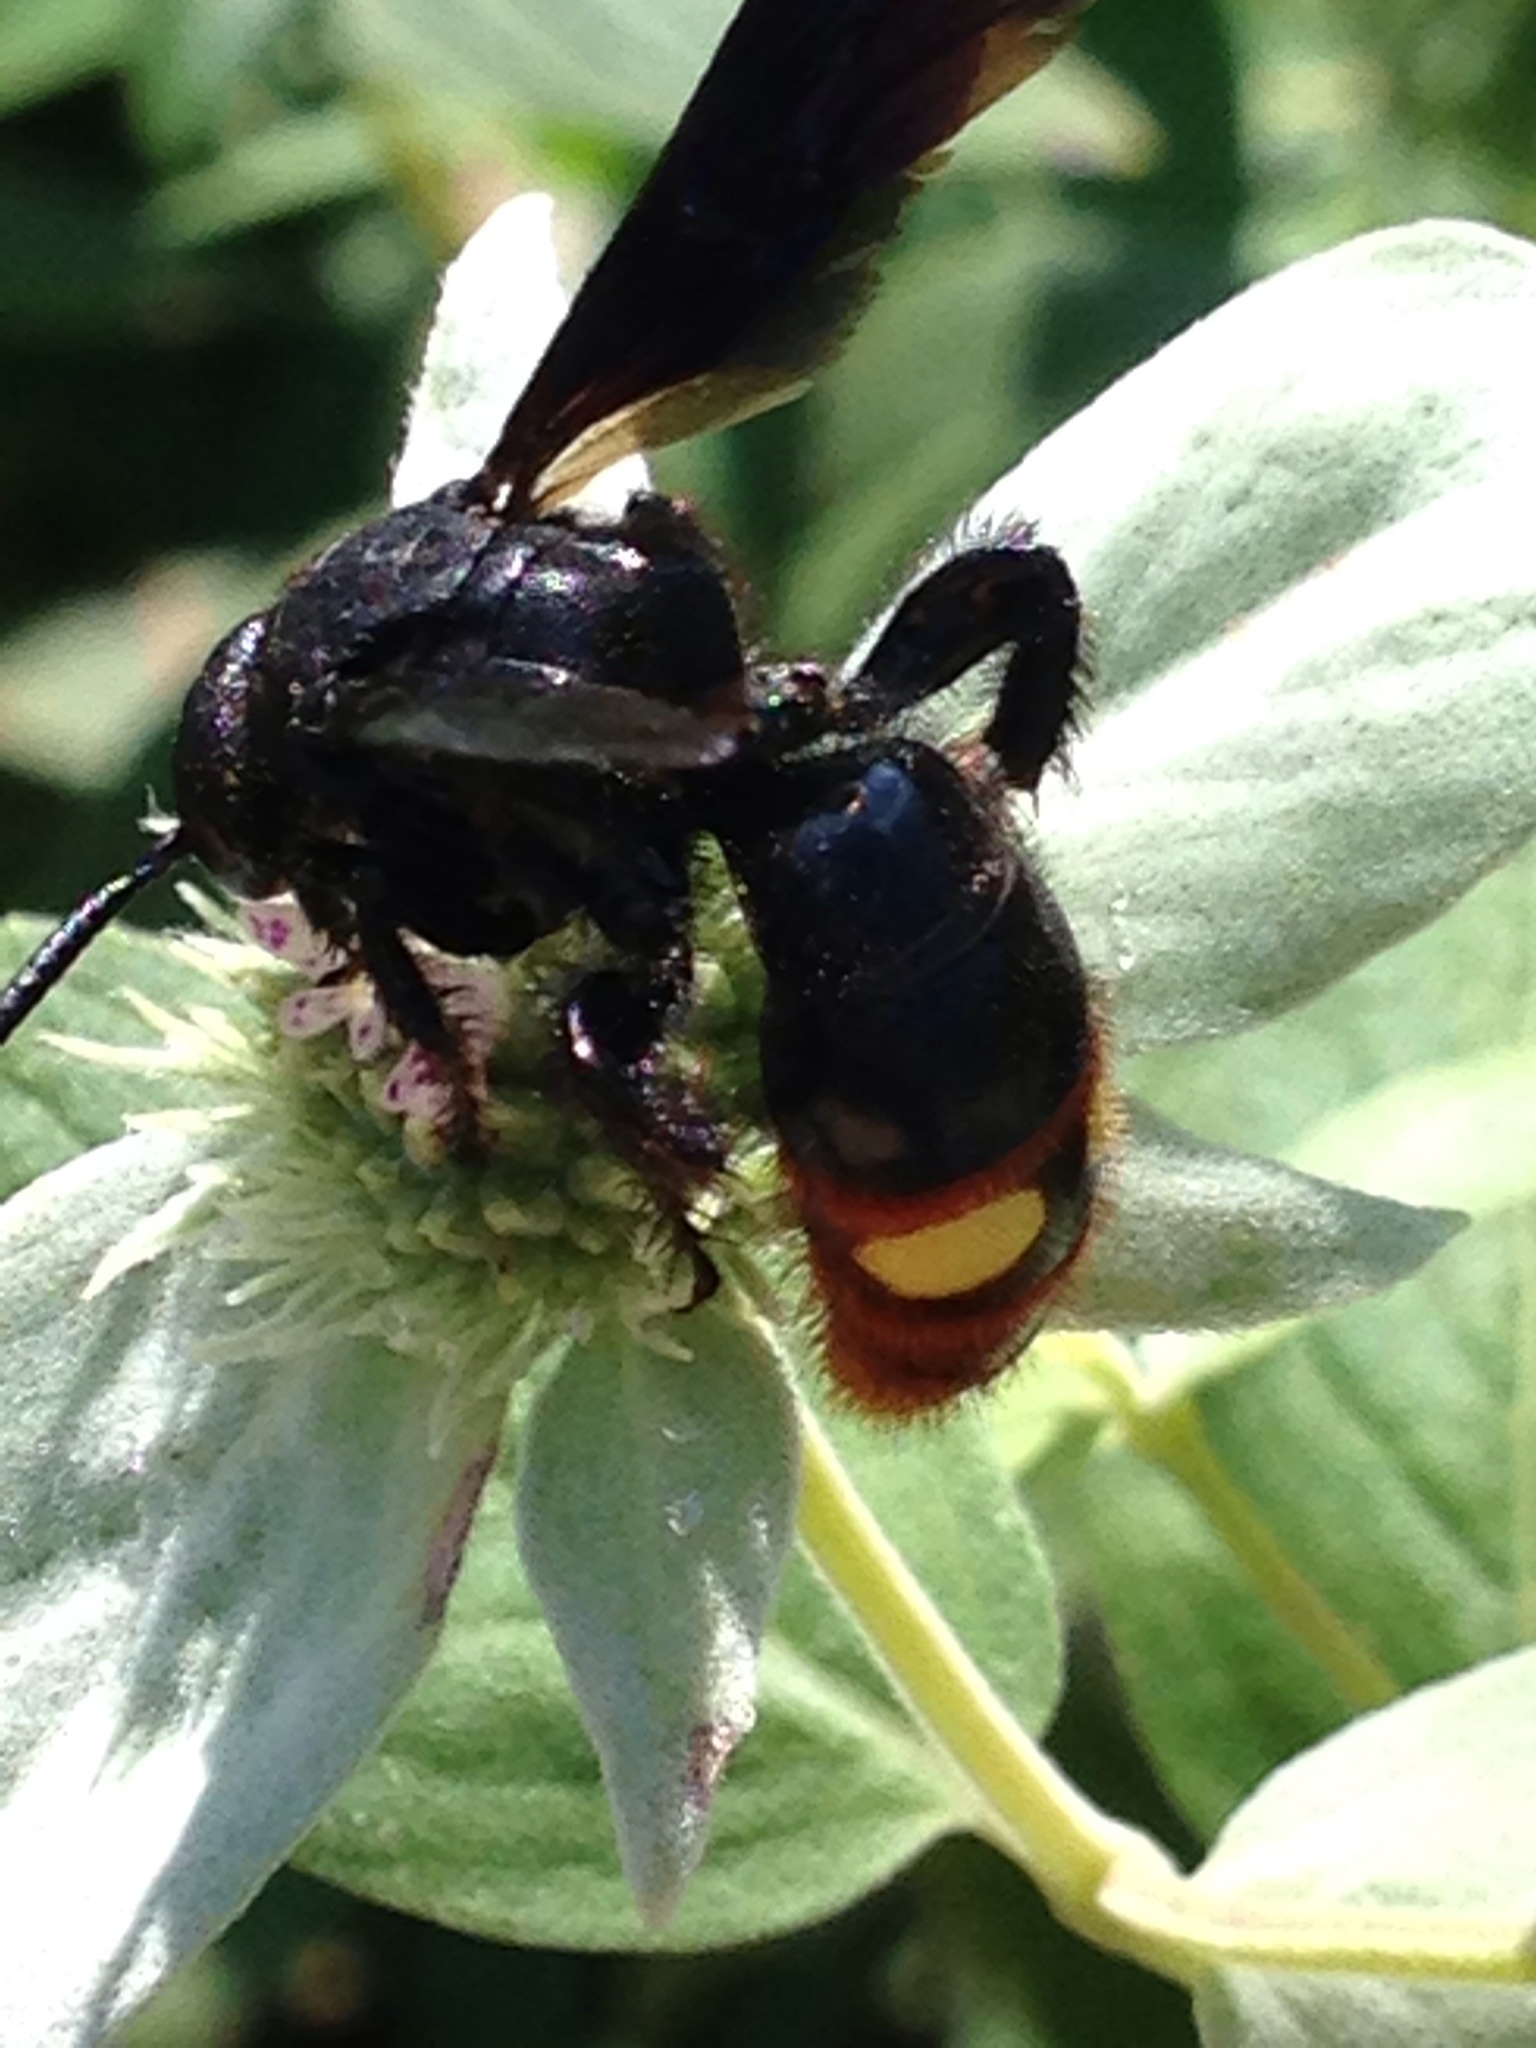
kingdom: Animalia
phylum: Arthropoda
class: Insecta
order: Hymenoptera
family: Scoliidae
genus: Scolia
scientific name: Scolia dubia
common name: Blue-winged scoliid wasp
